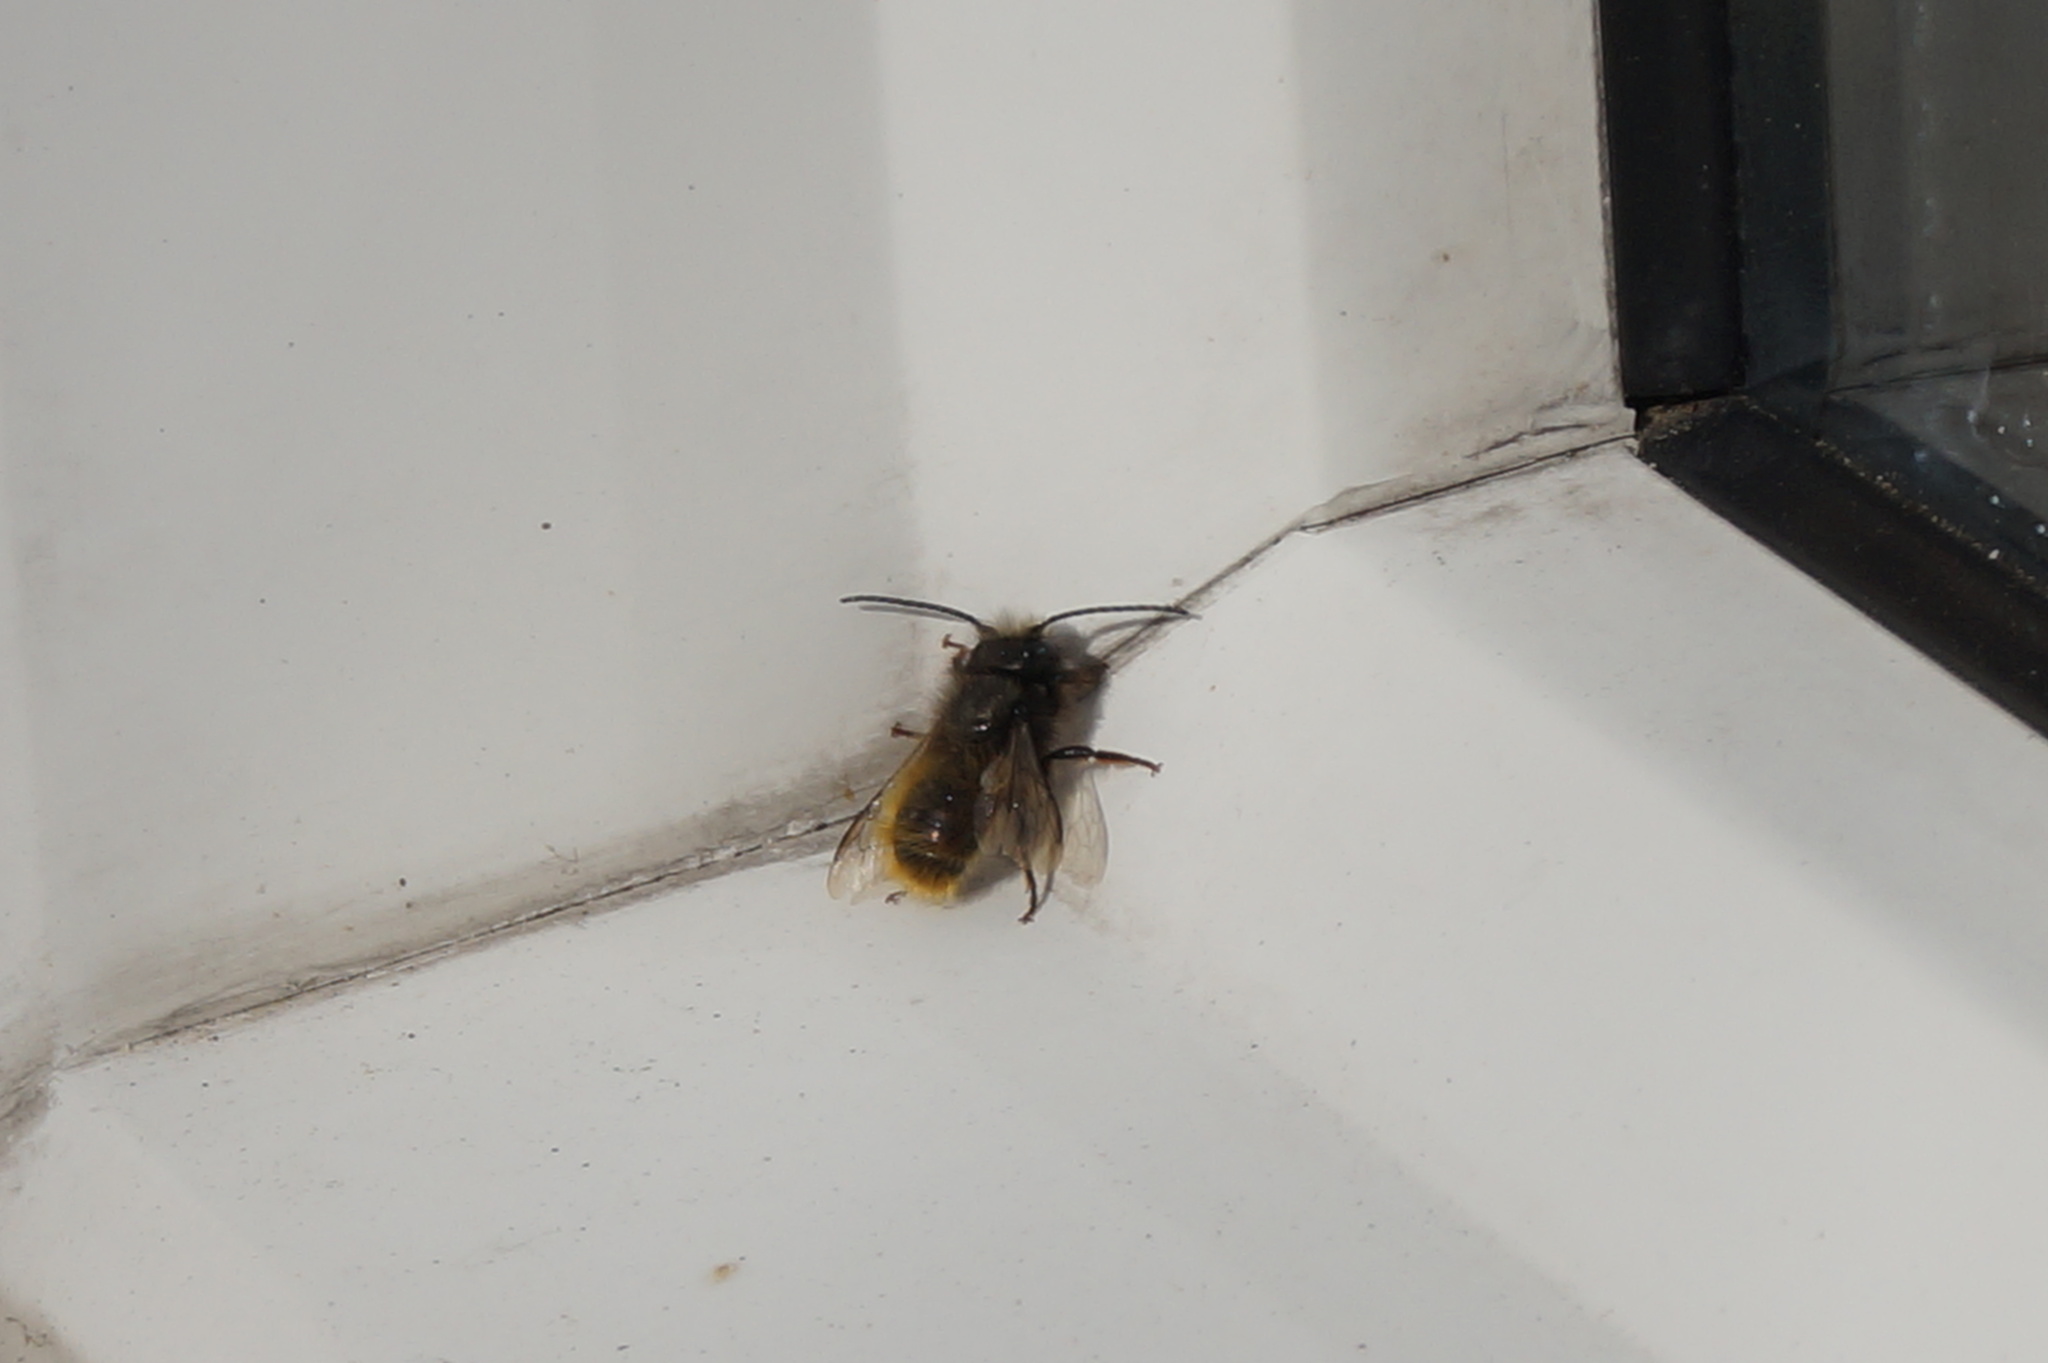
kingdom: Animalia
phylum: Arthropoda
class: Insecta
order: Hymenoptera
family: Megachilidae
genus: Osmia
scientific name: Osmia cornuta
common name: Mason bee
